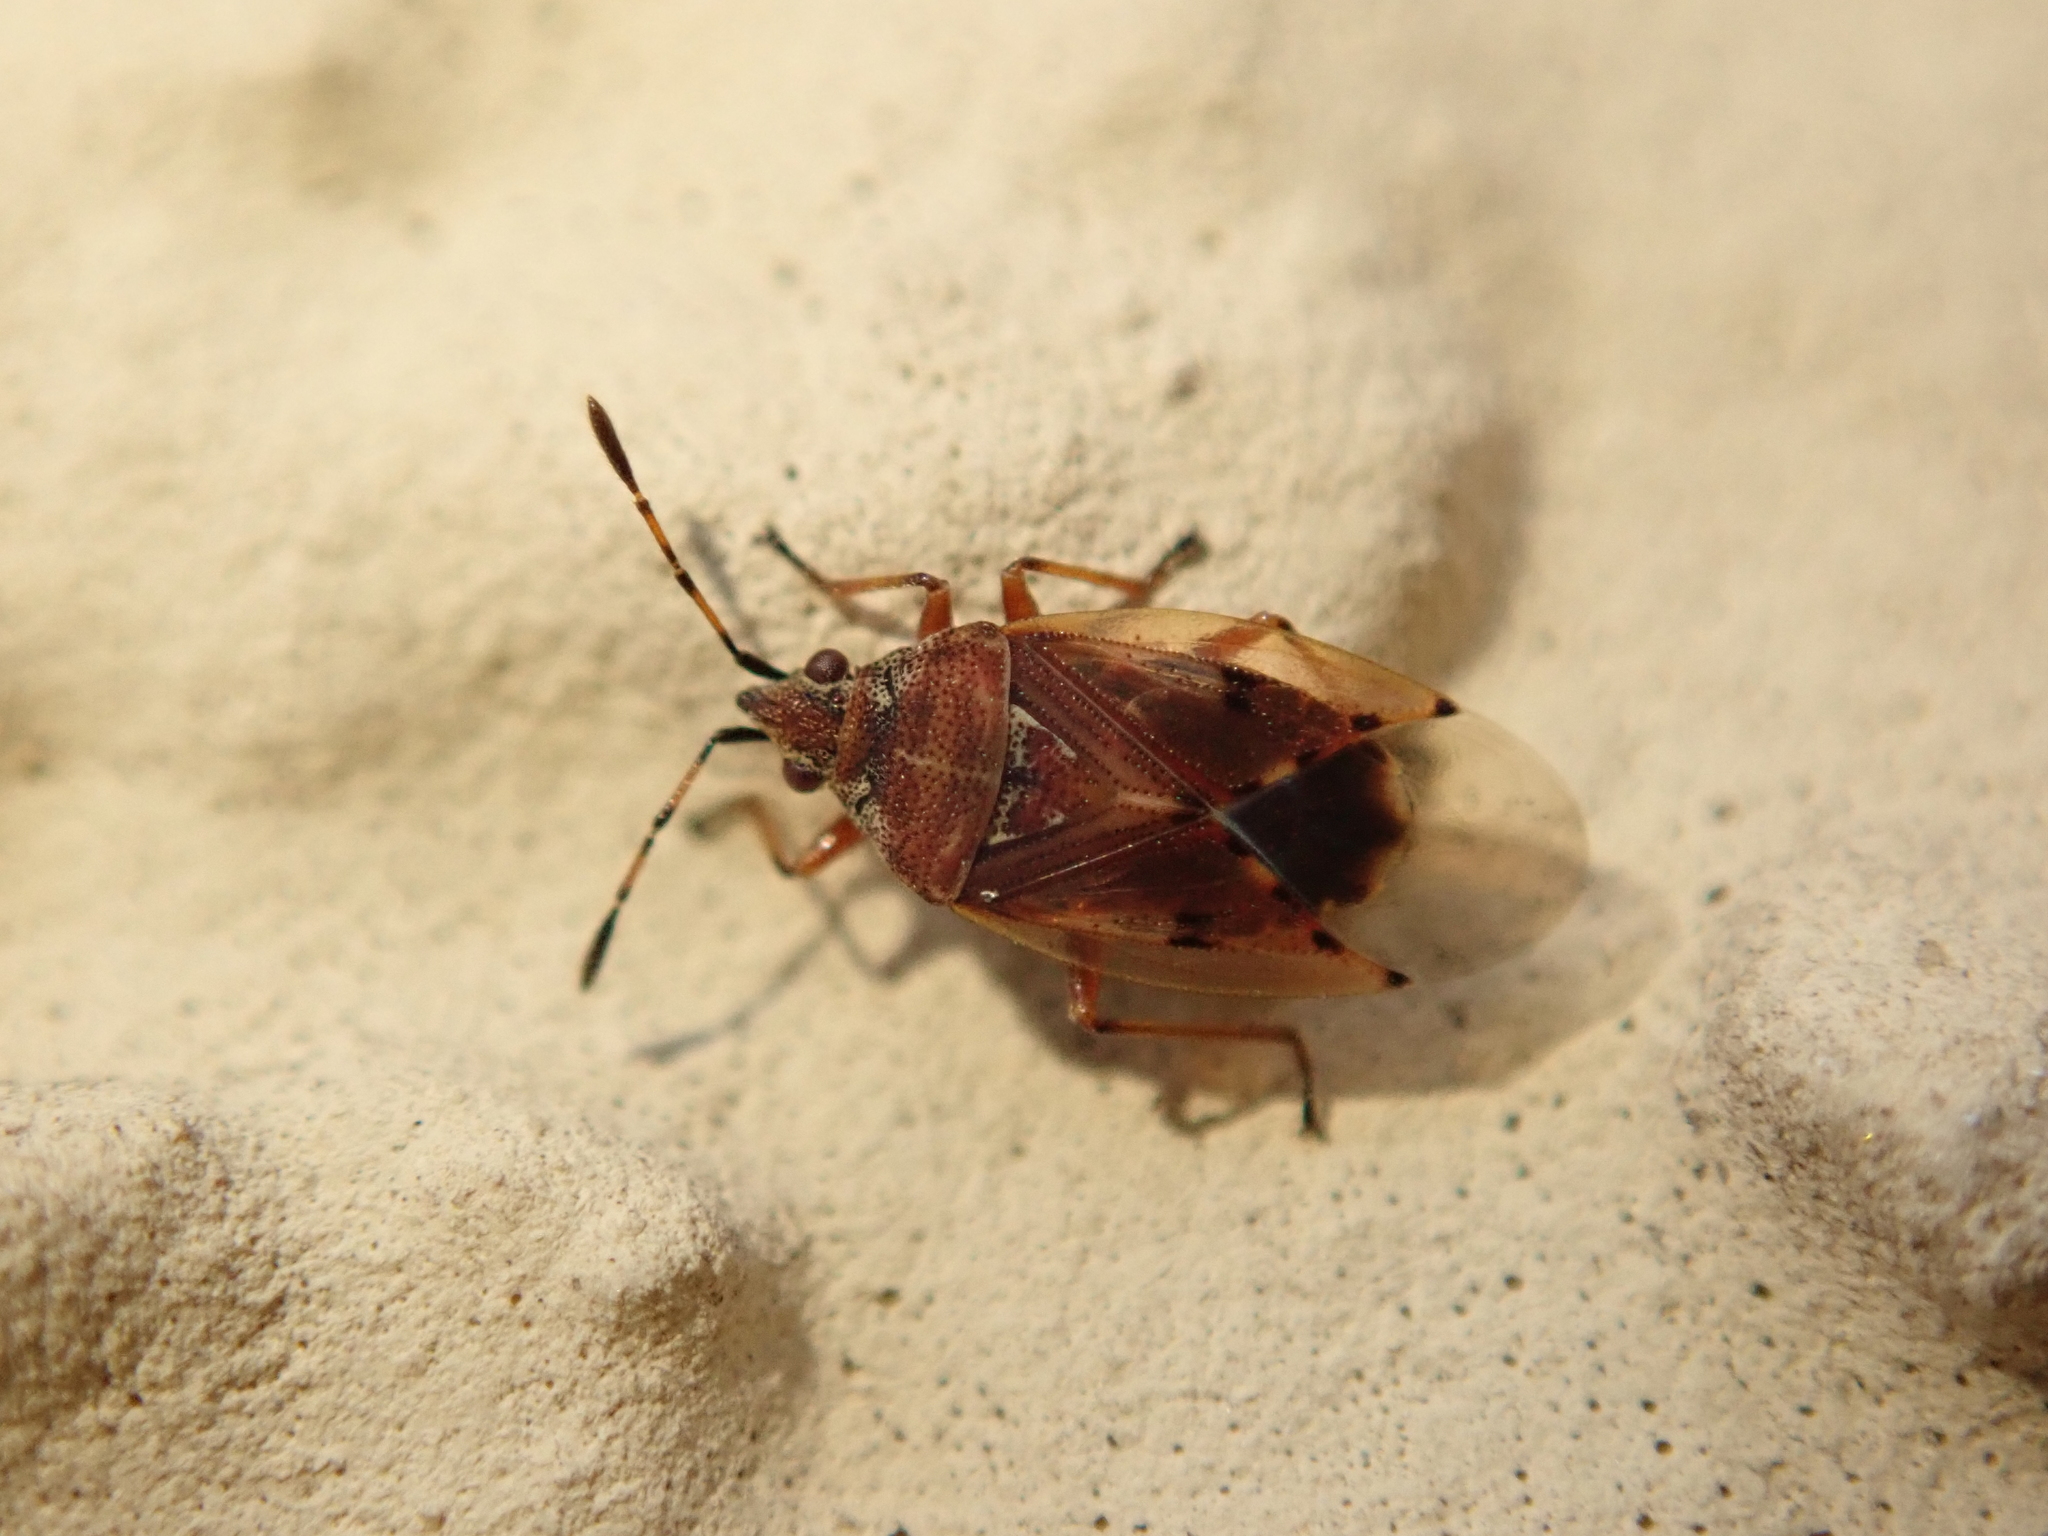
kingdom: Animalia
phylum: Arthropoda
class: Insecta
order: Hemiptera
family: Lygaeidae
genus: Kleidocerys
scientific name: Kleidocerys resedae
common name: Birch catkin bug
